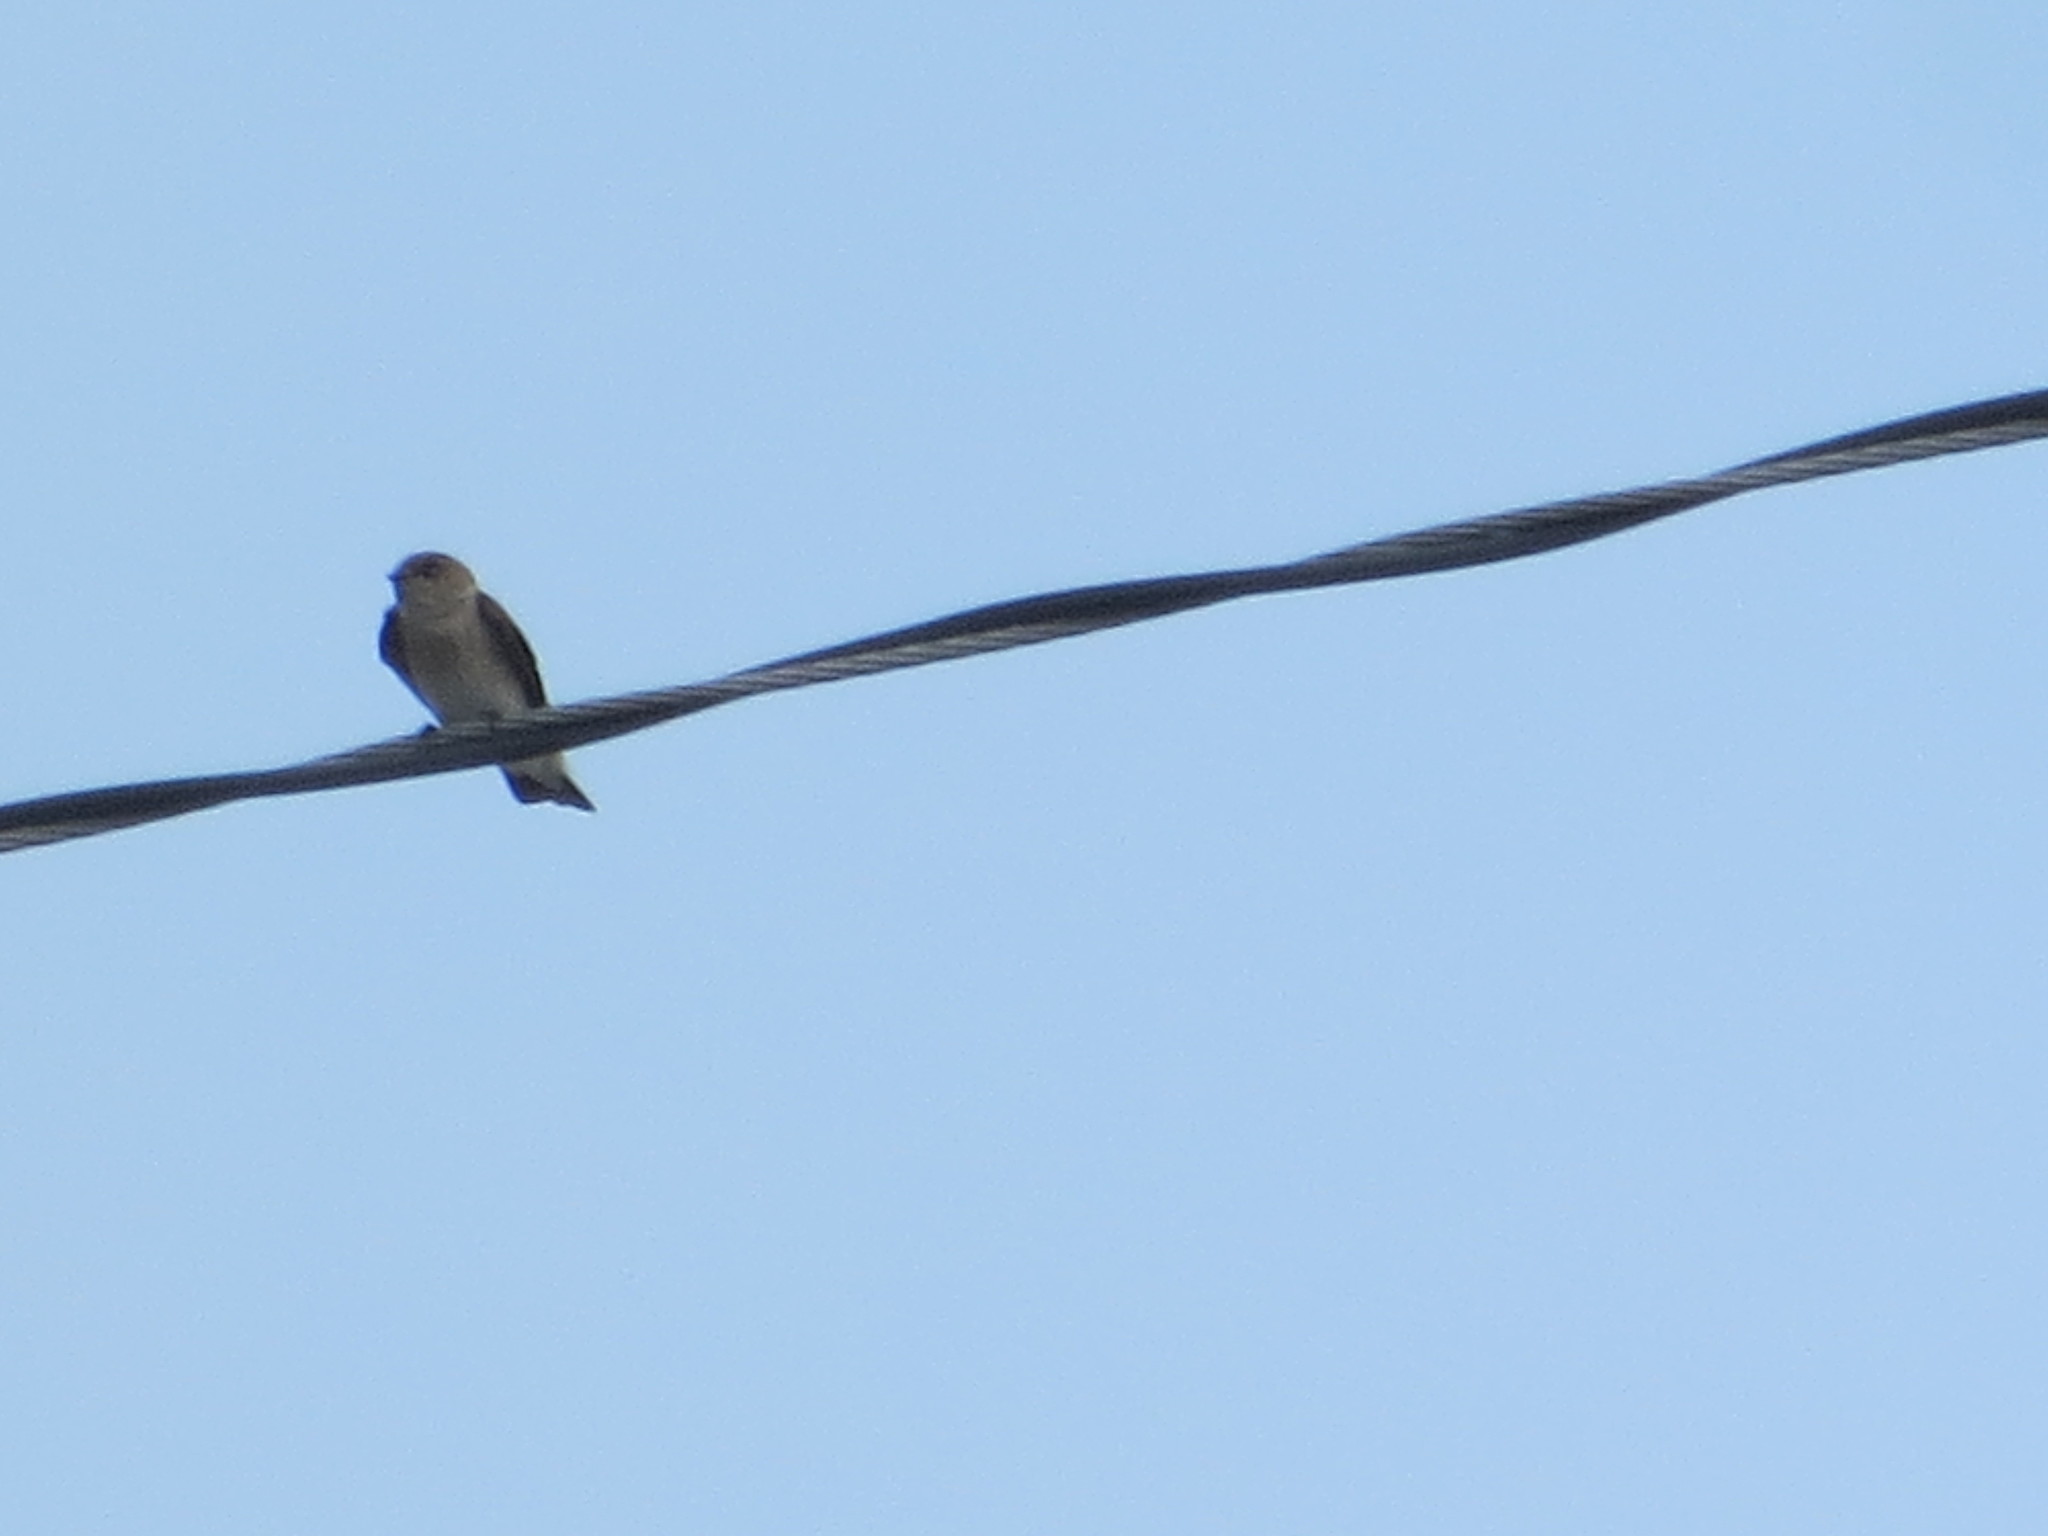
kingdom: Animalia
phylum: Chordata
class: Aves
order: Passeriformes
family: Hirundinidae
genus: Stelgidopteryx
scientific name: Stelgidopteryx serripennis
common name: Northern rough-winged swallow
